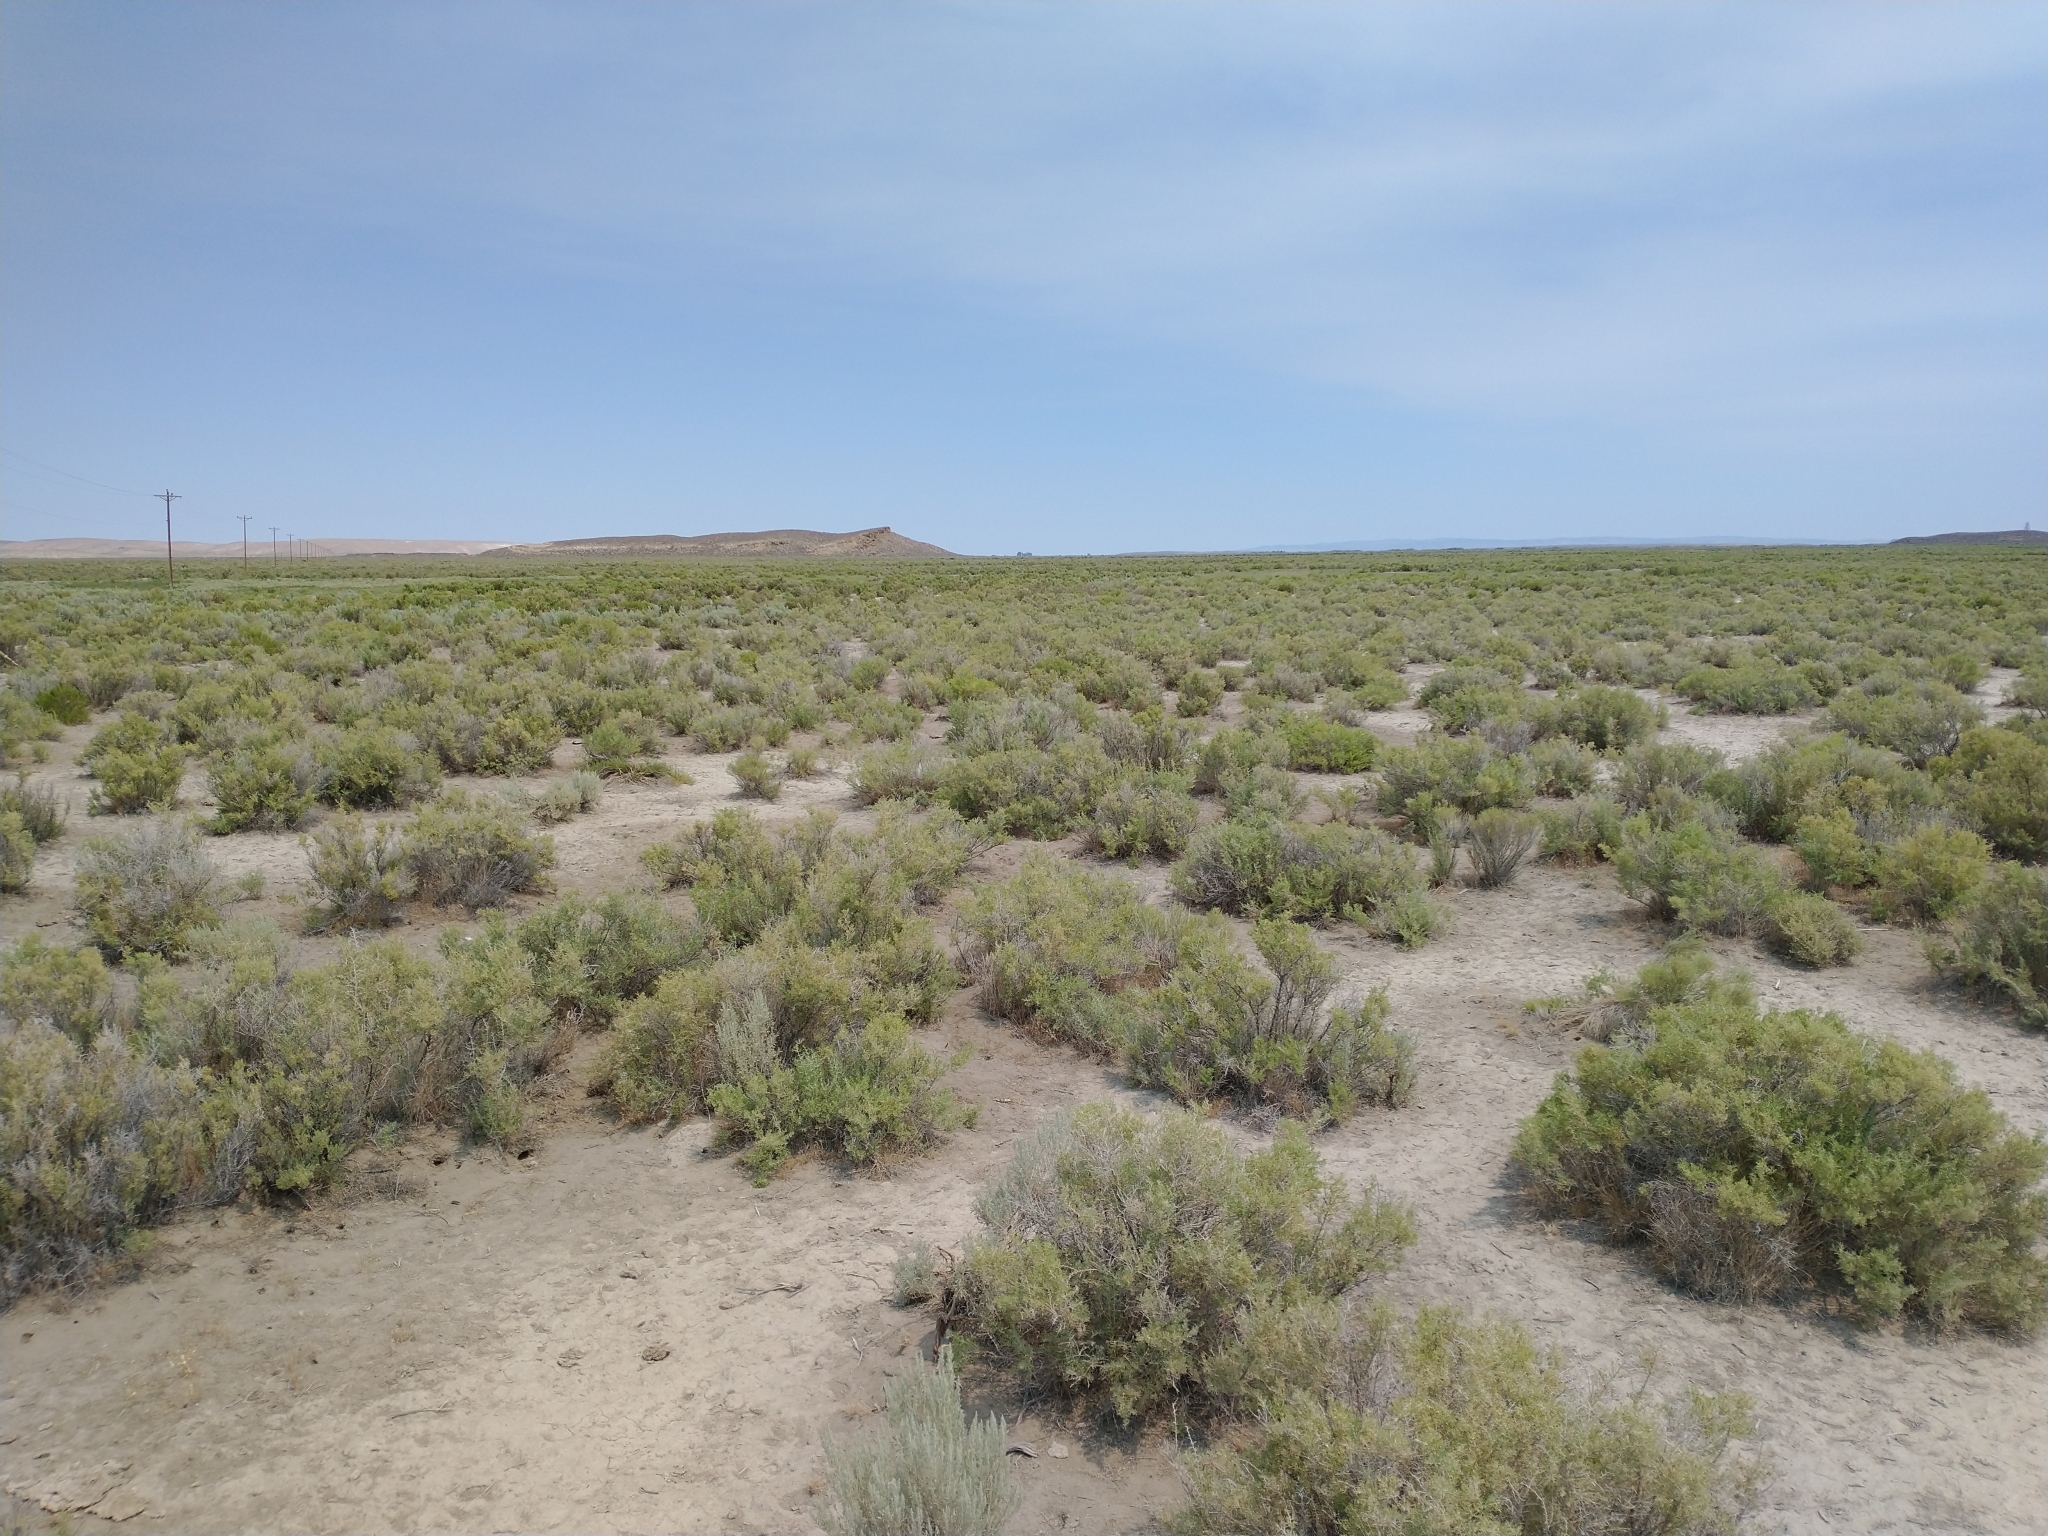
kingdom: Plantae
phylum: Tracheophyta
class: Magnoliopsida
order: Caryophyllales
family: Sarcobataceae
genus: Sarcobatus
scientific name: Sarcobatus vermiculatus
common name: Greasewood
